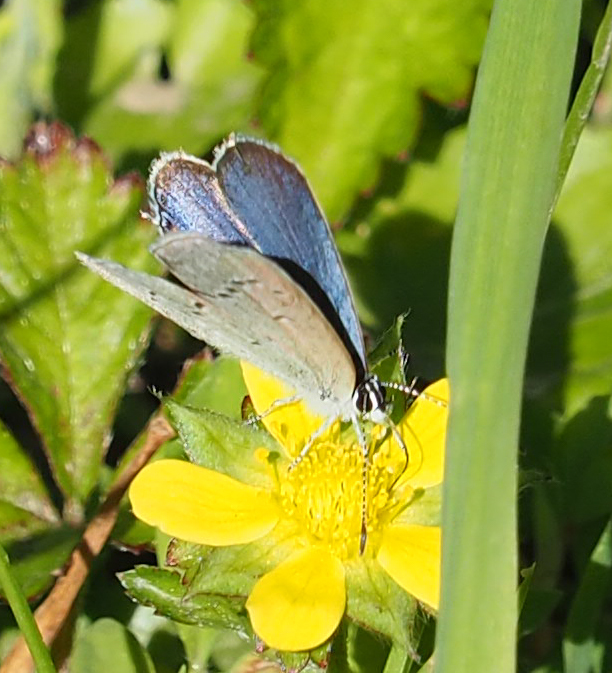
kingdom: Animalia
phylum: Arthropoda
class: Insecta
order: Lepidoptera
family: Lycaenidae
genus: Elkalyce
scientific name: Elkalyce comyntas
